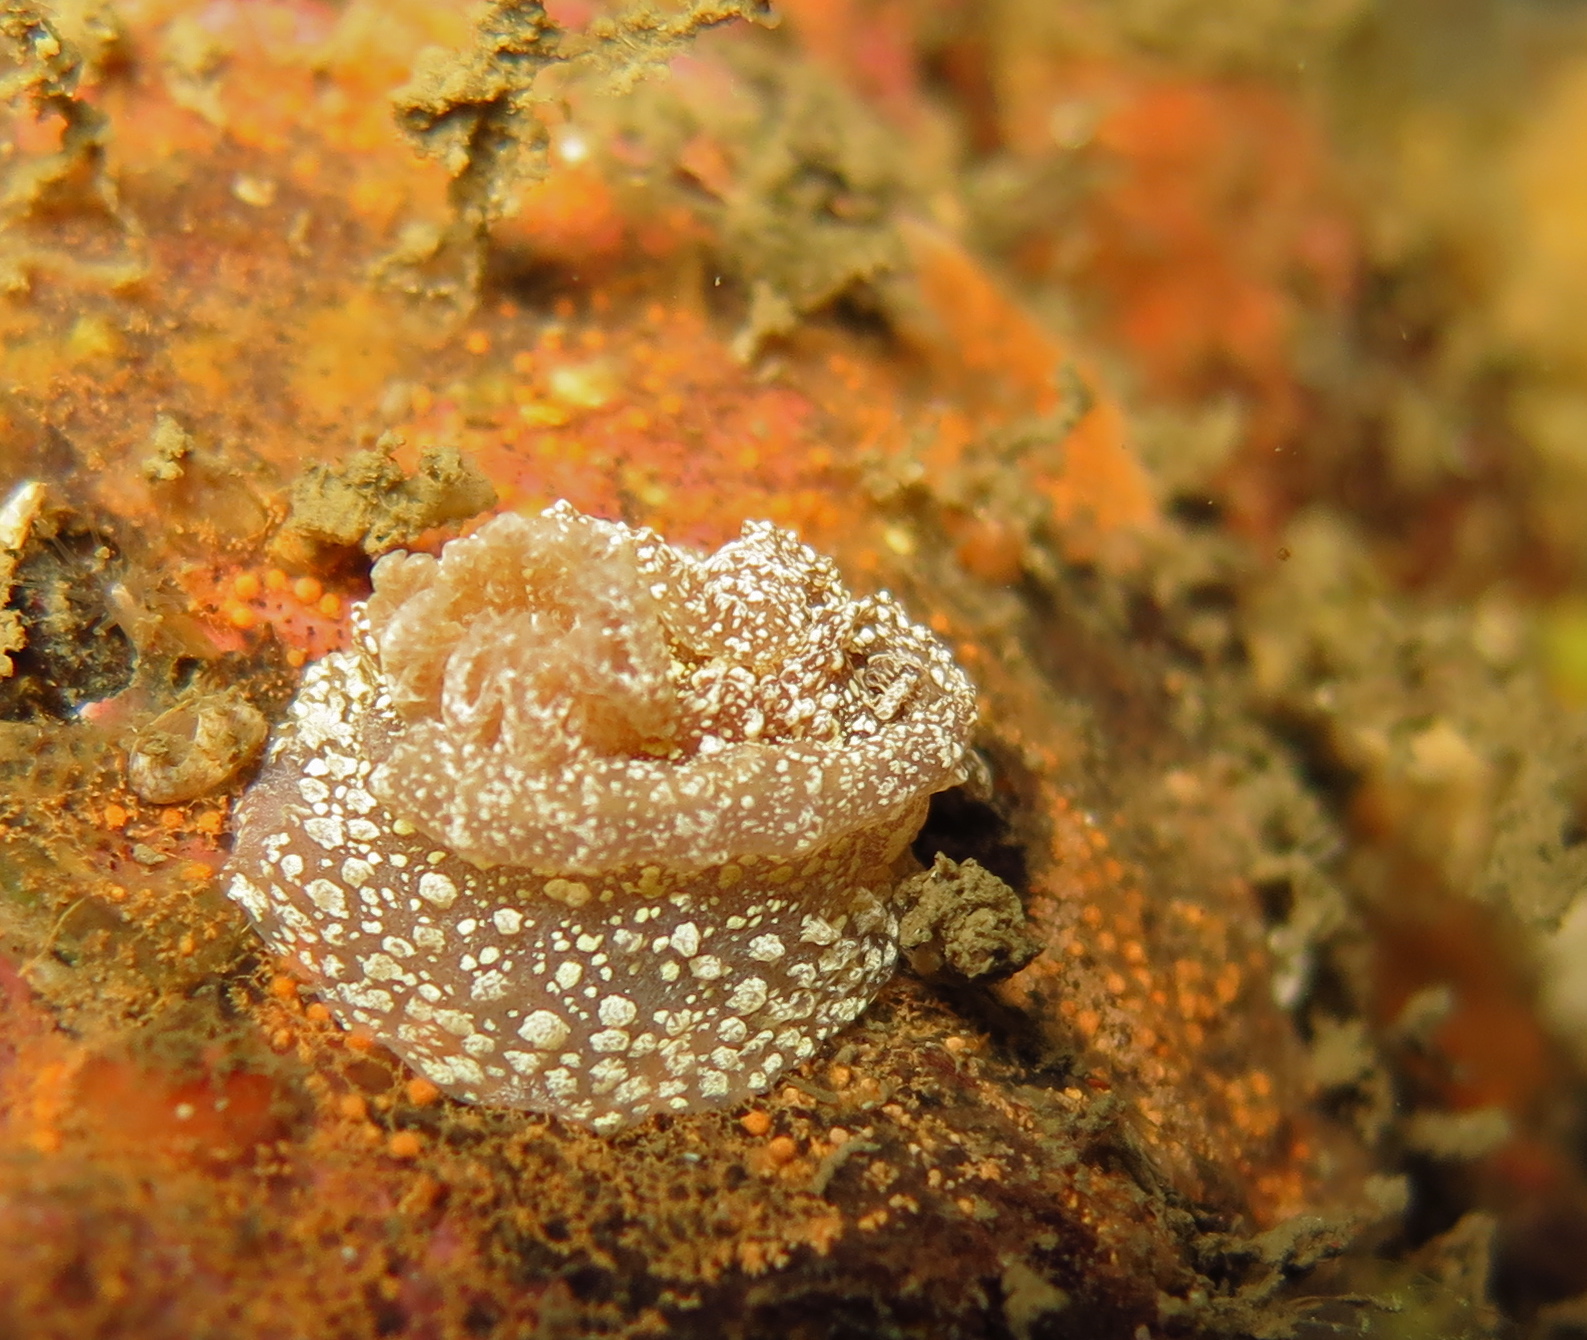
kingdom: Animalia
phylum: Mollusca
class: Gastropoda
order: Nudibranchia
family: Goniodorididae
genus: Pelagella
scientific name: Pelagella castanea
